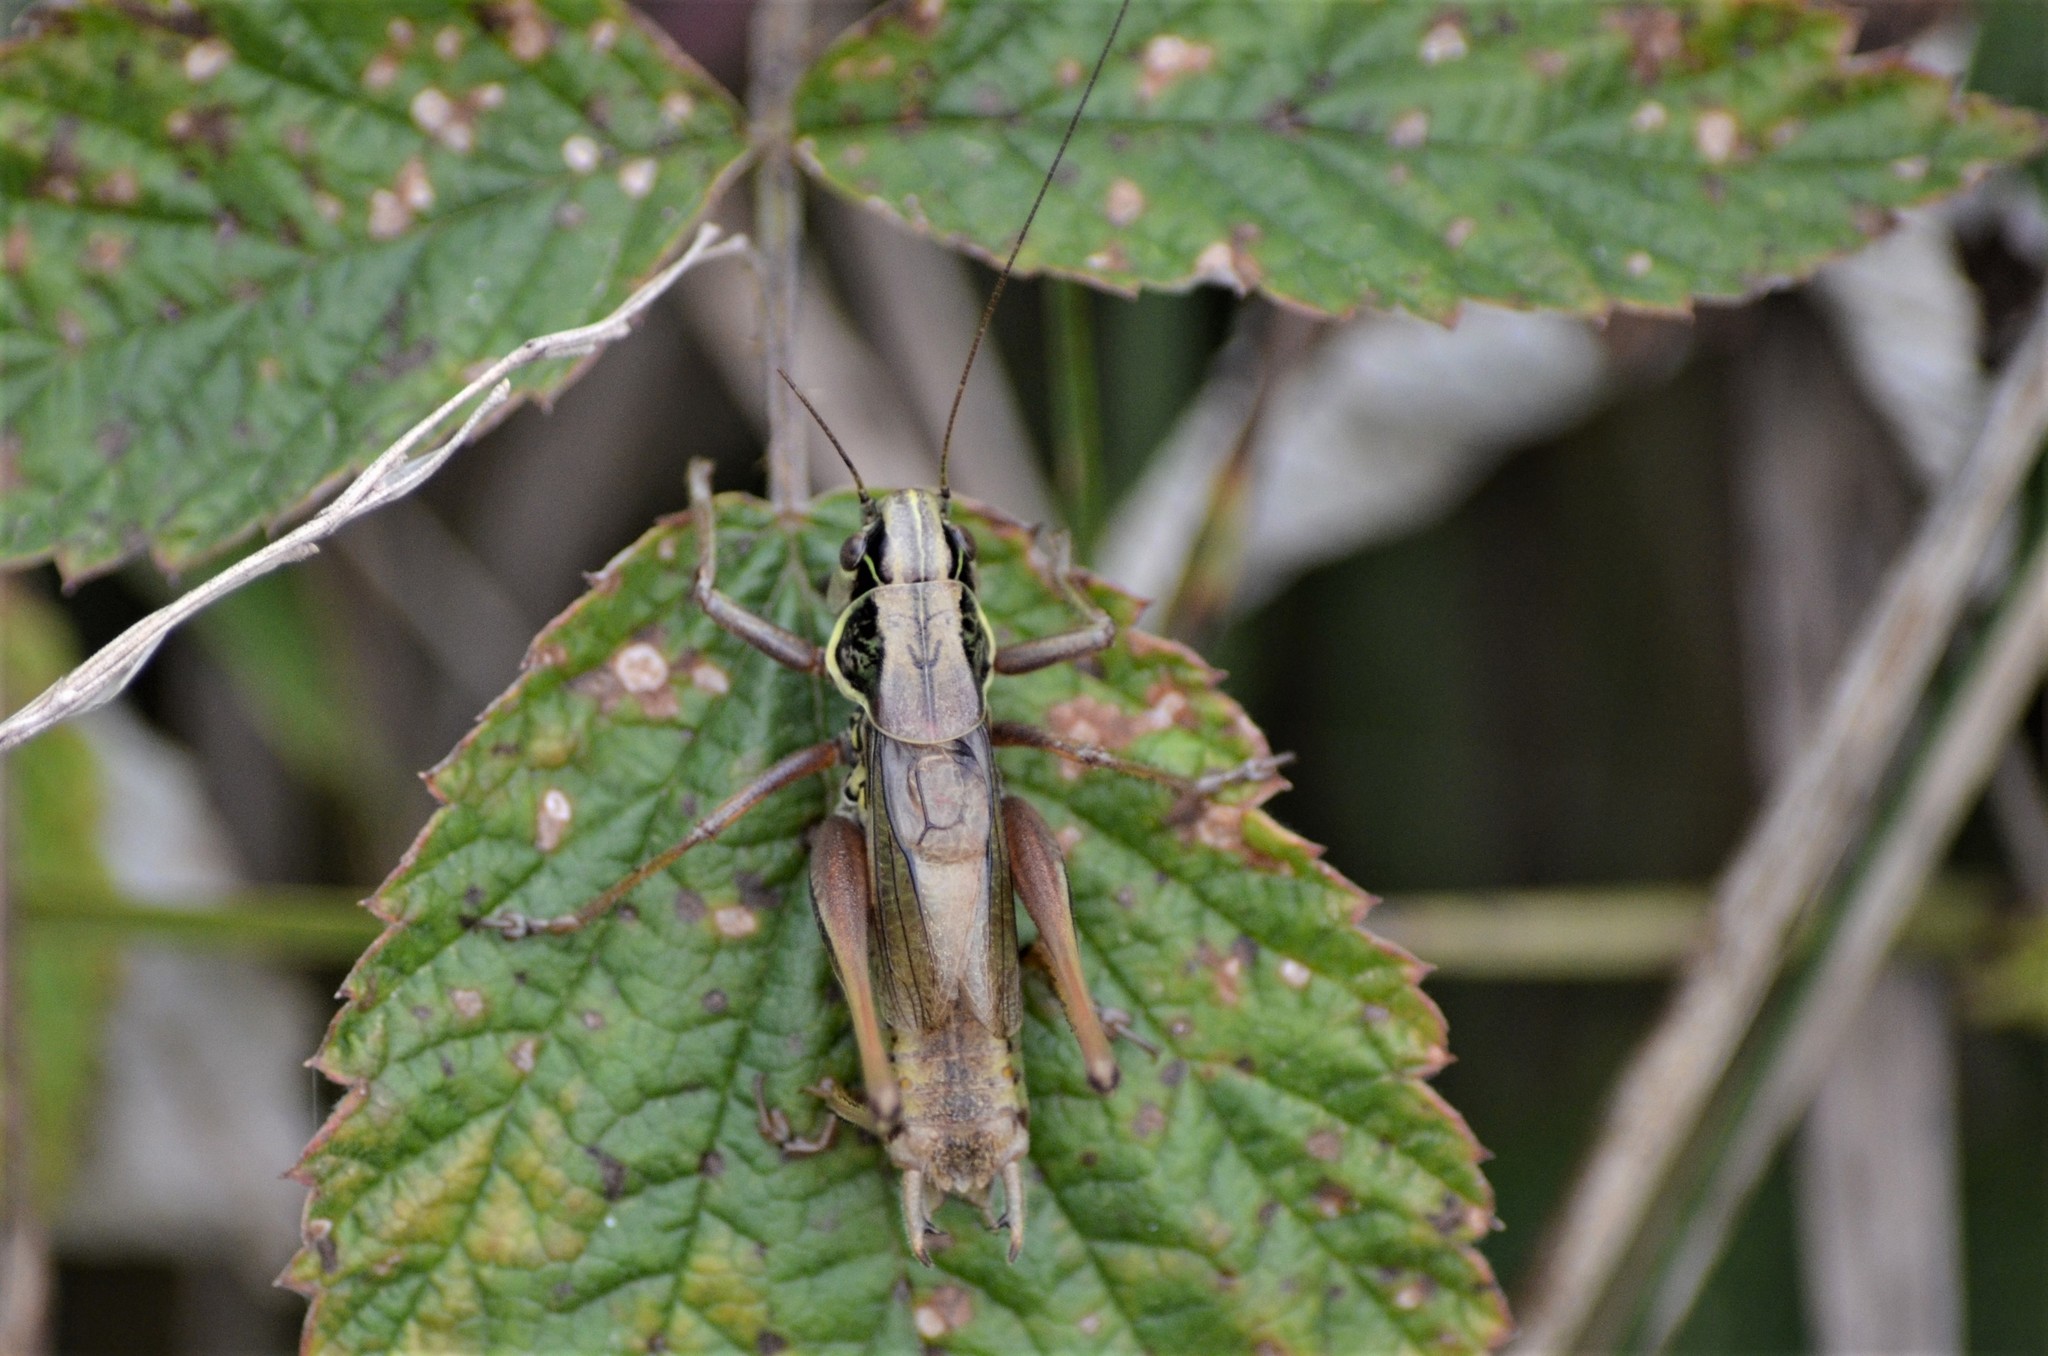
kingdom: Animalia
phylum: Arthropoda
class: Insecta
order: Orthoptera
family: Tettigoniidae
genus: Roeseliana
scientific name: Roeseliana roeselii
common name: Roesel's bush cricket
